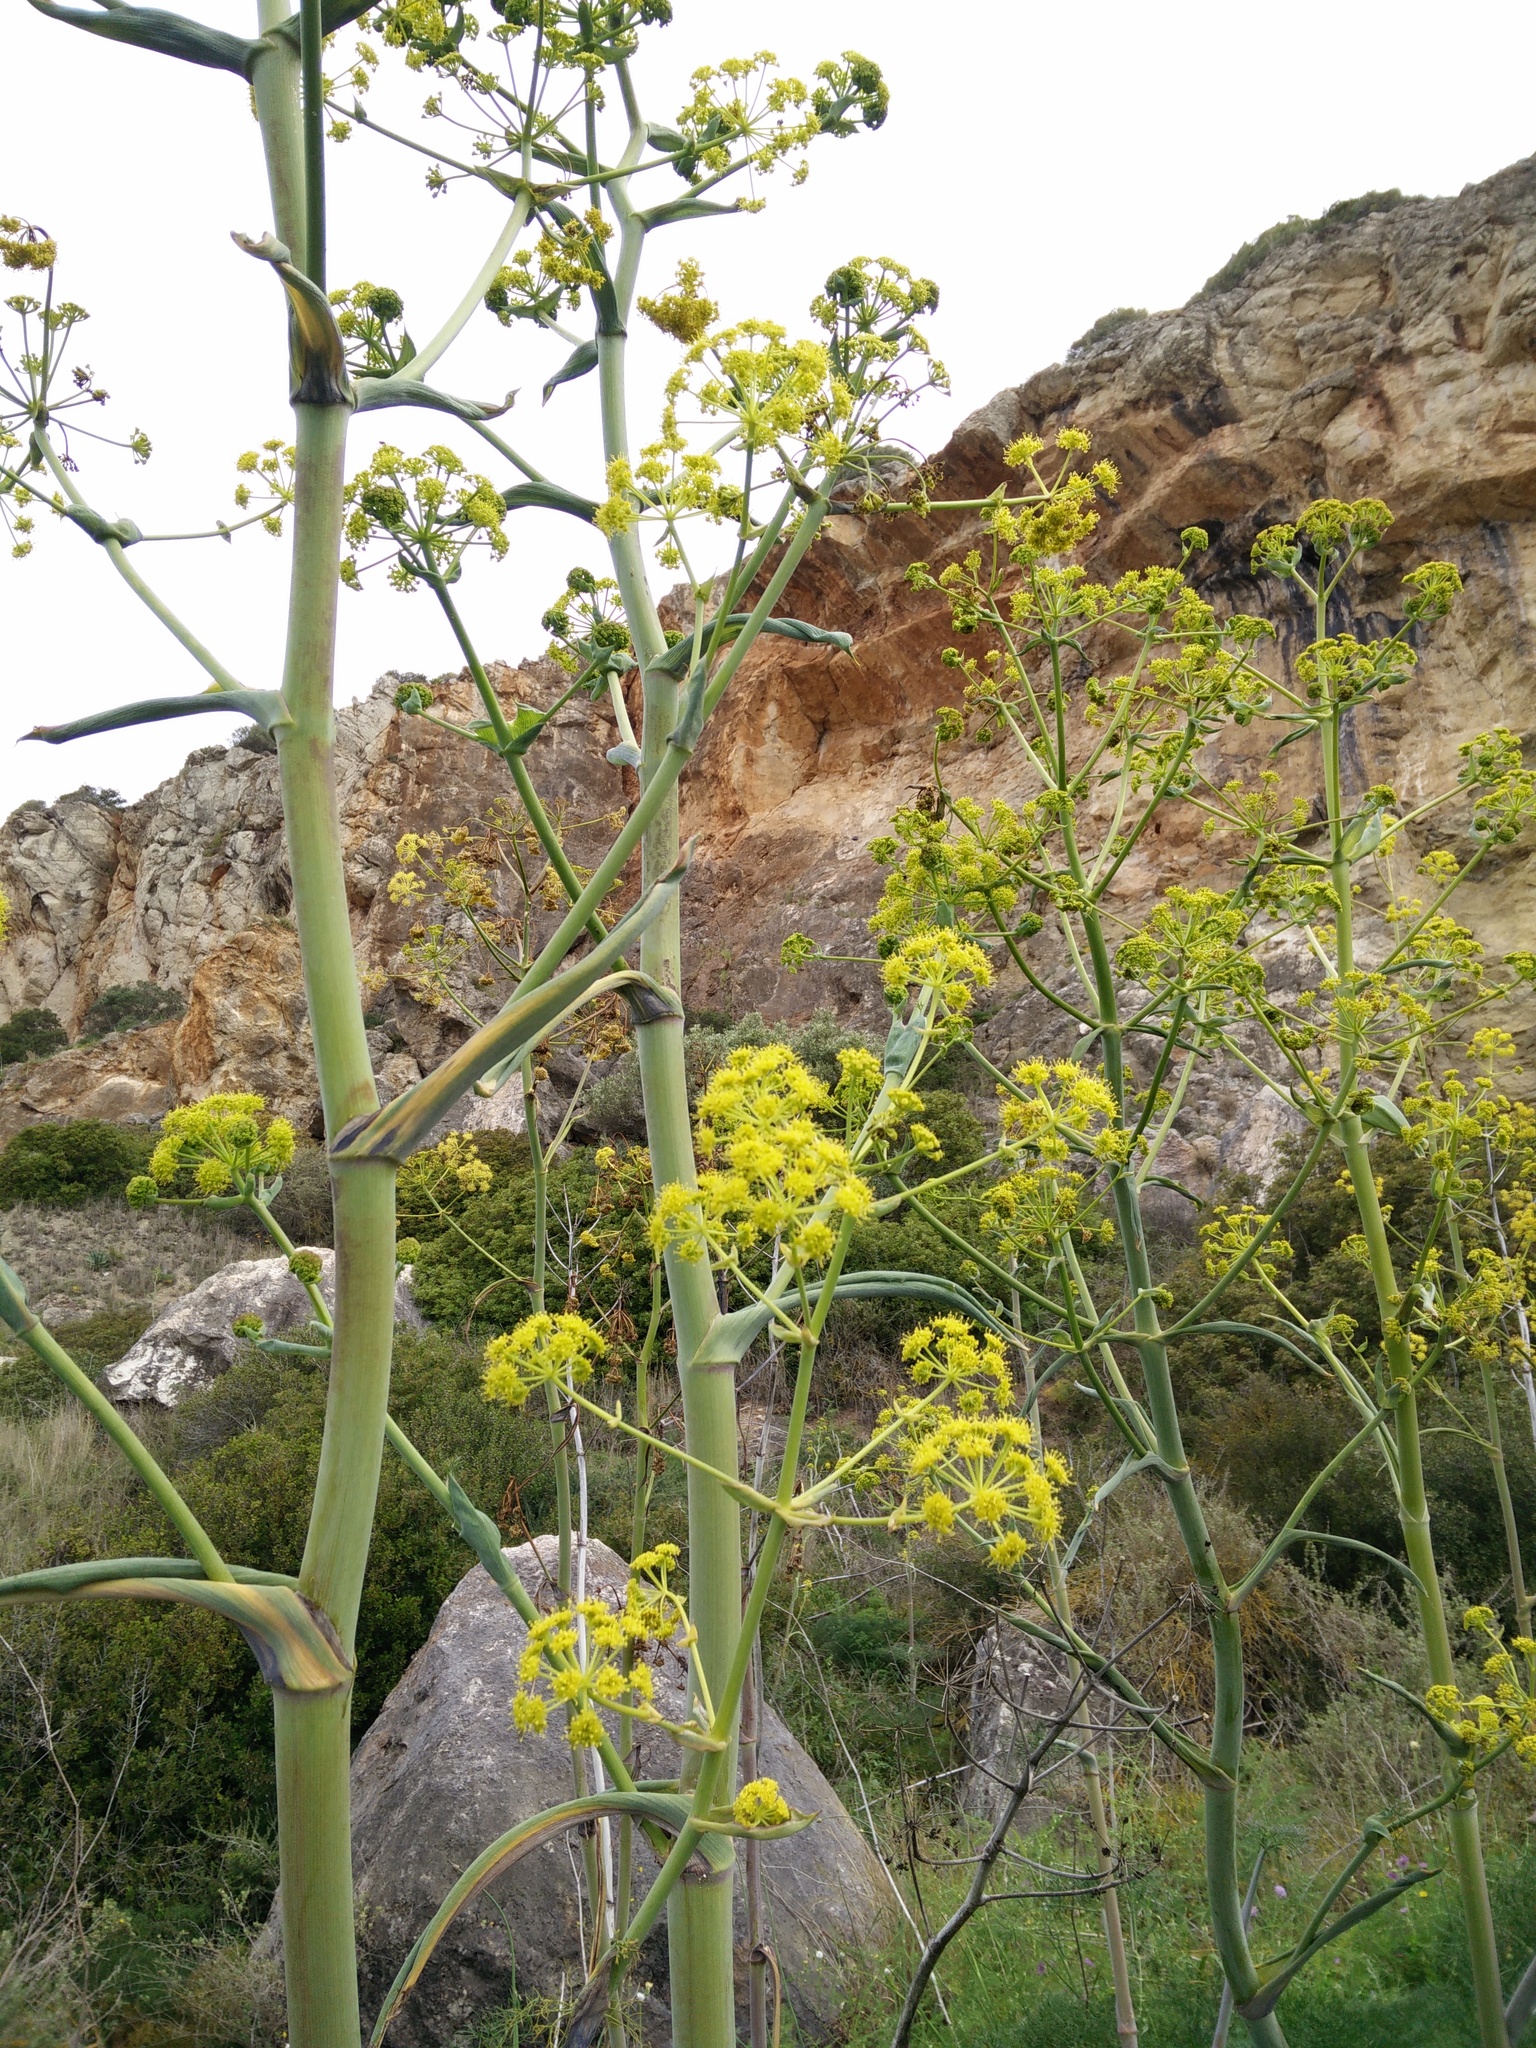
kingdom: Plantae
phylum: Tracheophyta
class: Magnoliopsida
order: Apiales
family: Apiaceae
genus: Ferula
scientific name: Ferula communis
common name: Giant fennel
